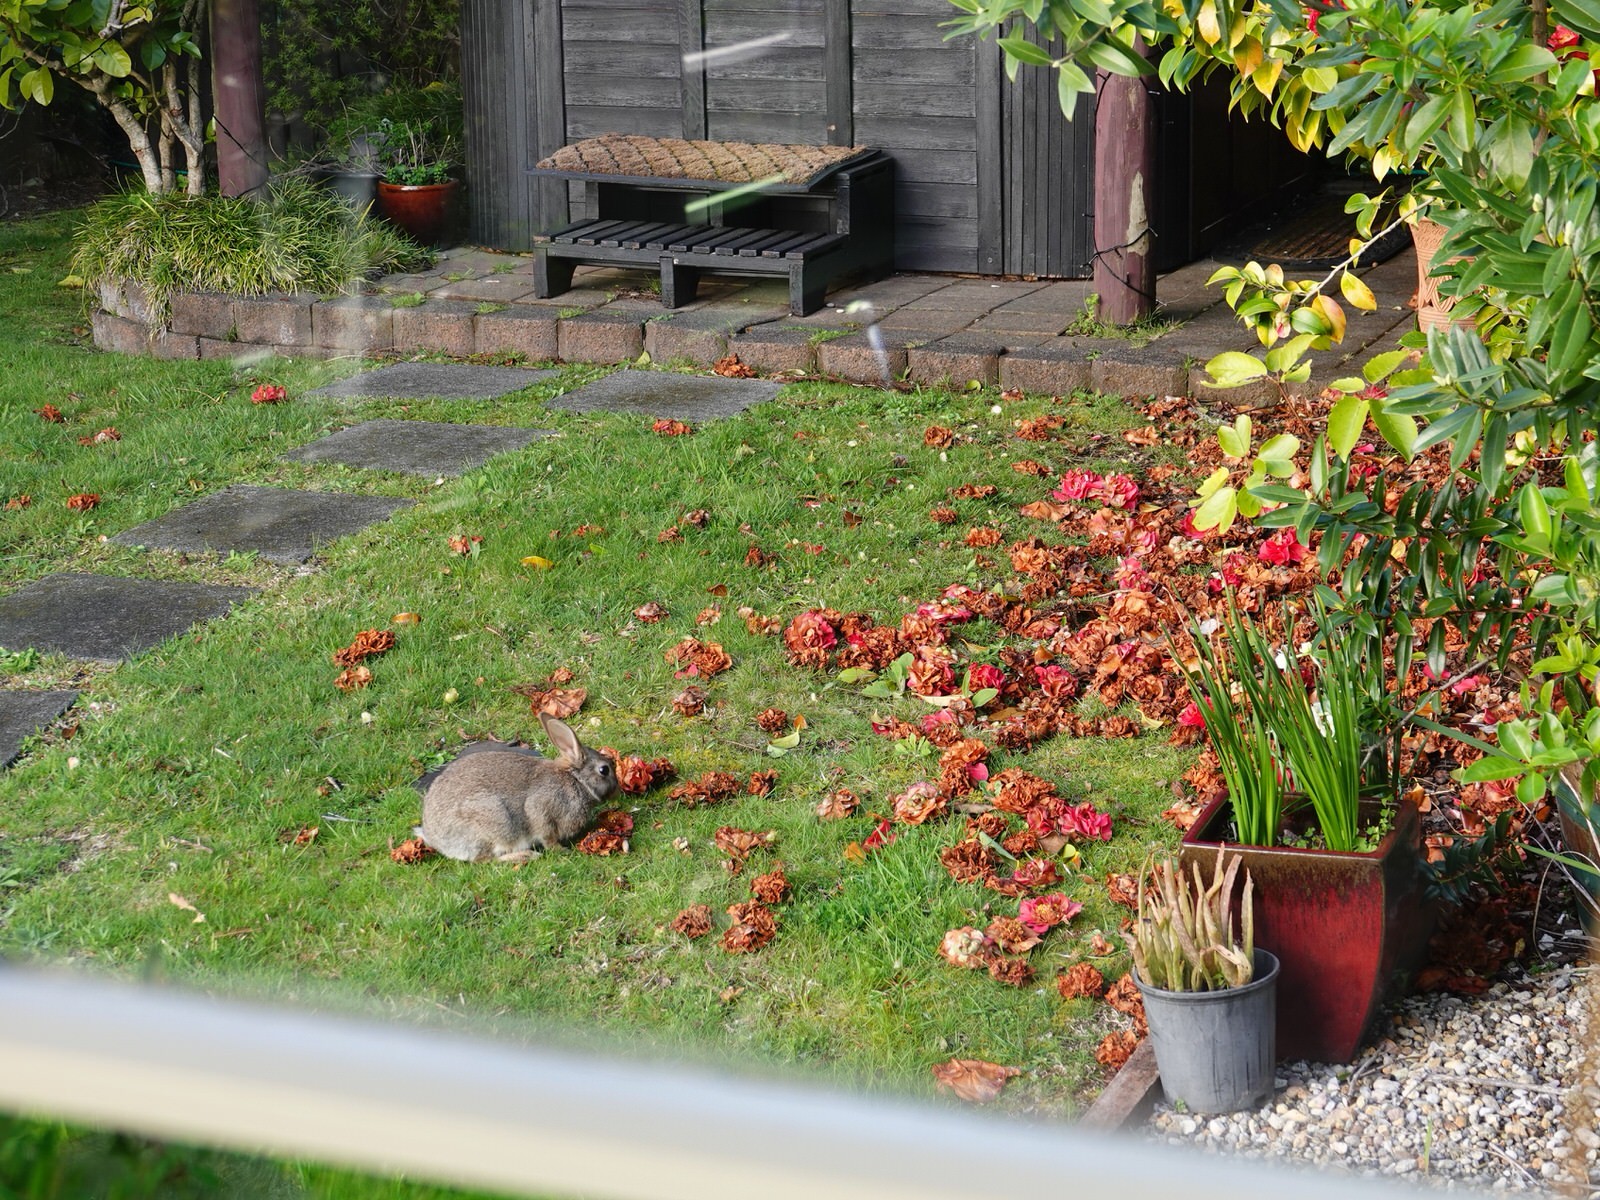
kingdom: Animalia
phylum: Chordata
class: Mammalia
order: Lagomorpha
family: Leporidae
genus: Oryctolagus
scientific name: Oryctolagus cuniculus
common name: European rabbit
